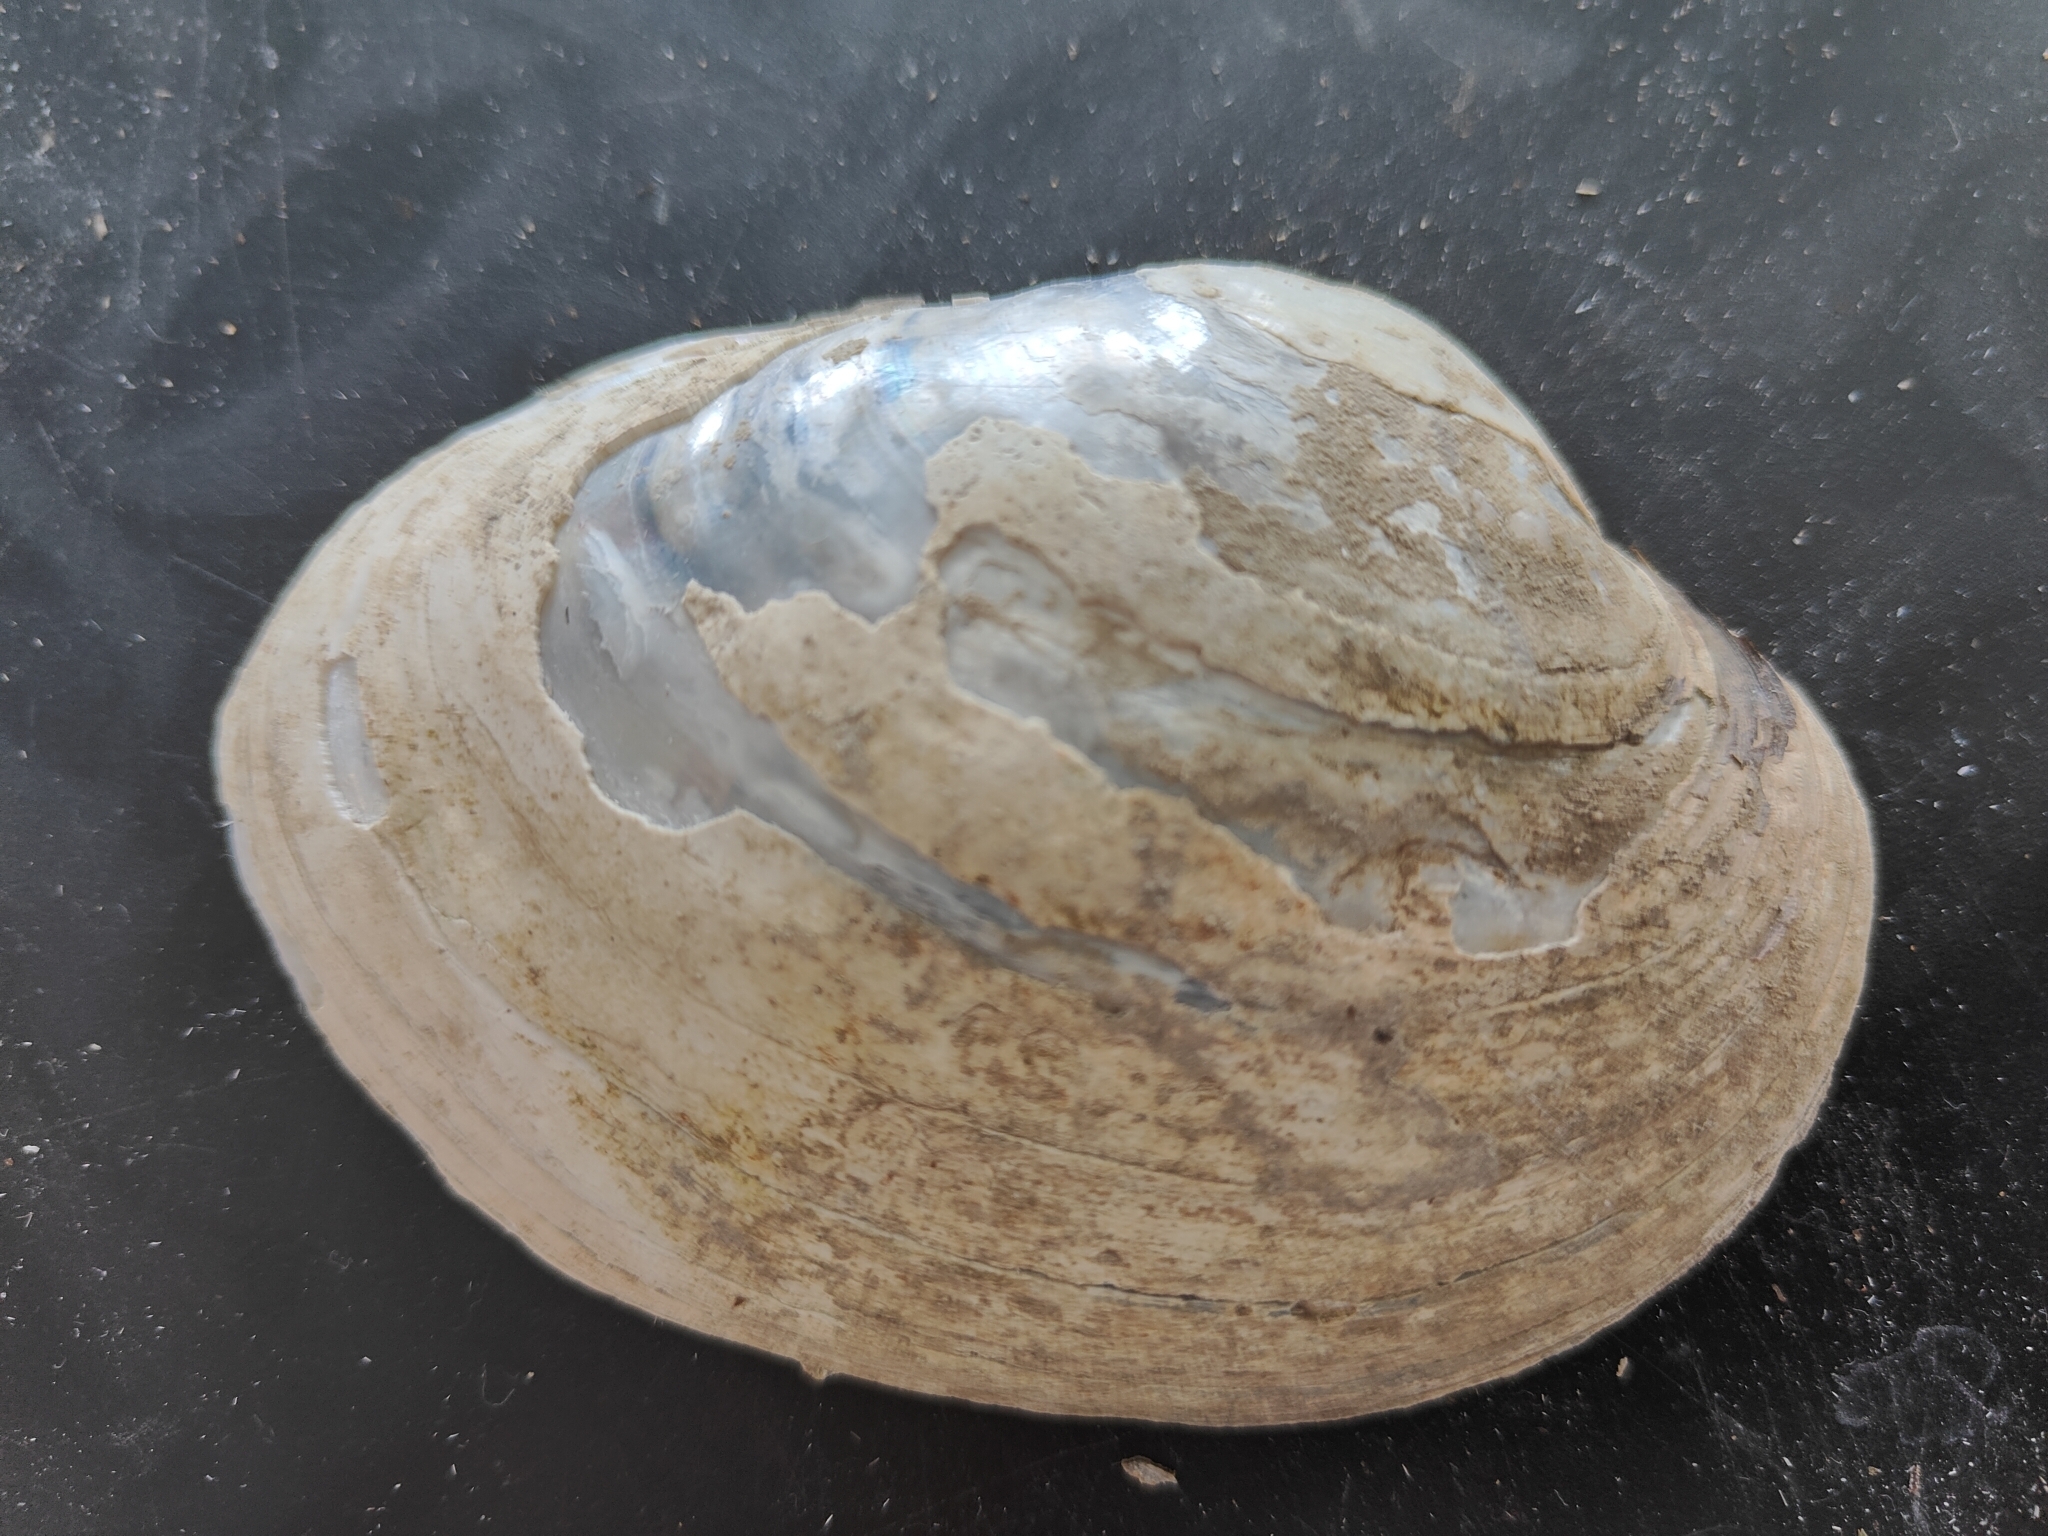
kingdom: Animalia
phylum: Mollusca
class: Bivalvia
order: Unionida
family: Unionidae
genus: Lampsilis
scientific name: Lampsilis cardium
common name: Plain pocketbook
